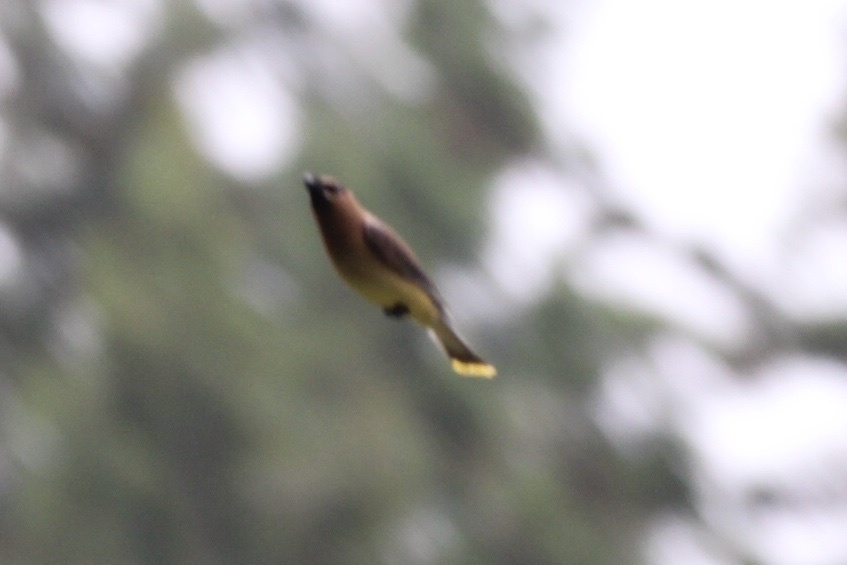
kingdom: Animalia
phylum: Chordata
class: Aves
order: Passeriformes
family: Bombycillidae
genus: Bombycilla
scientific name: Bombycilla cedrorum
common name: Cedar waxwing
